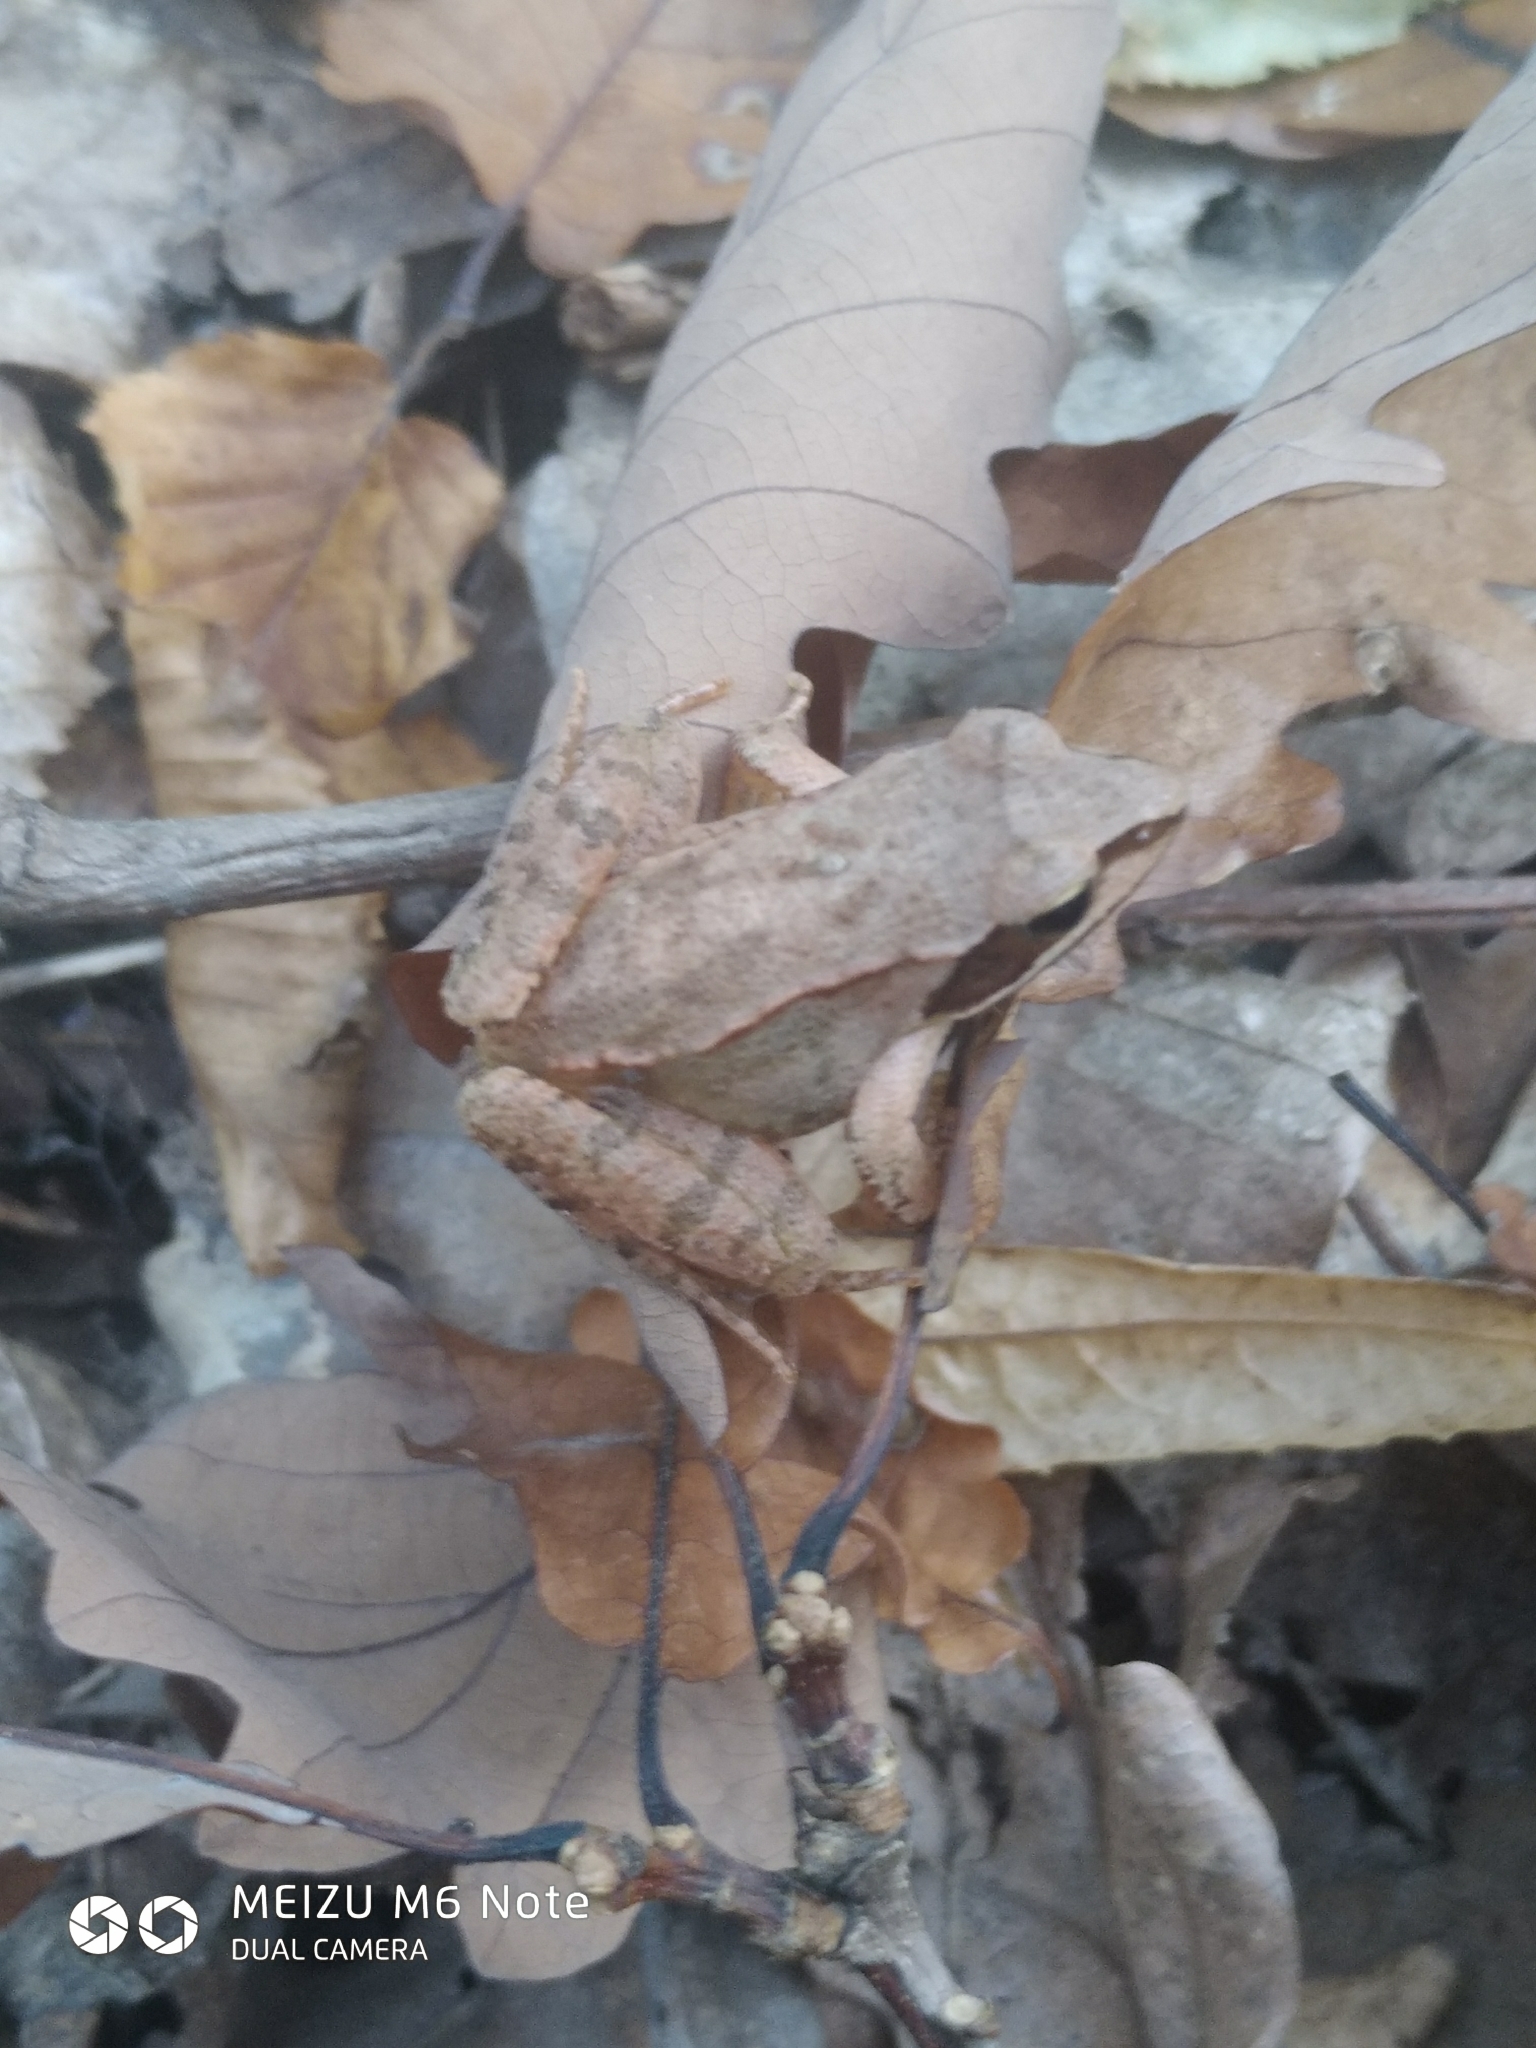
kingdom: Animalia
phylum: Chordata
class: Amphibia
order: Anura
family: Ranidae
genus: Rana
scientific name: Rana dalmatina
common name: Agile frog
